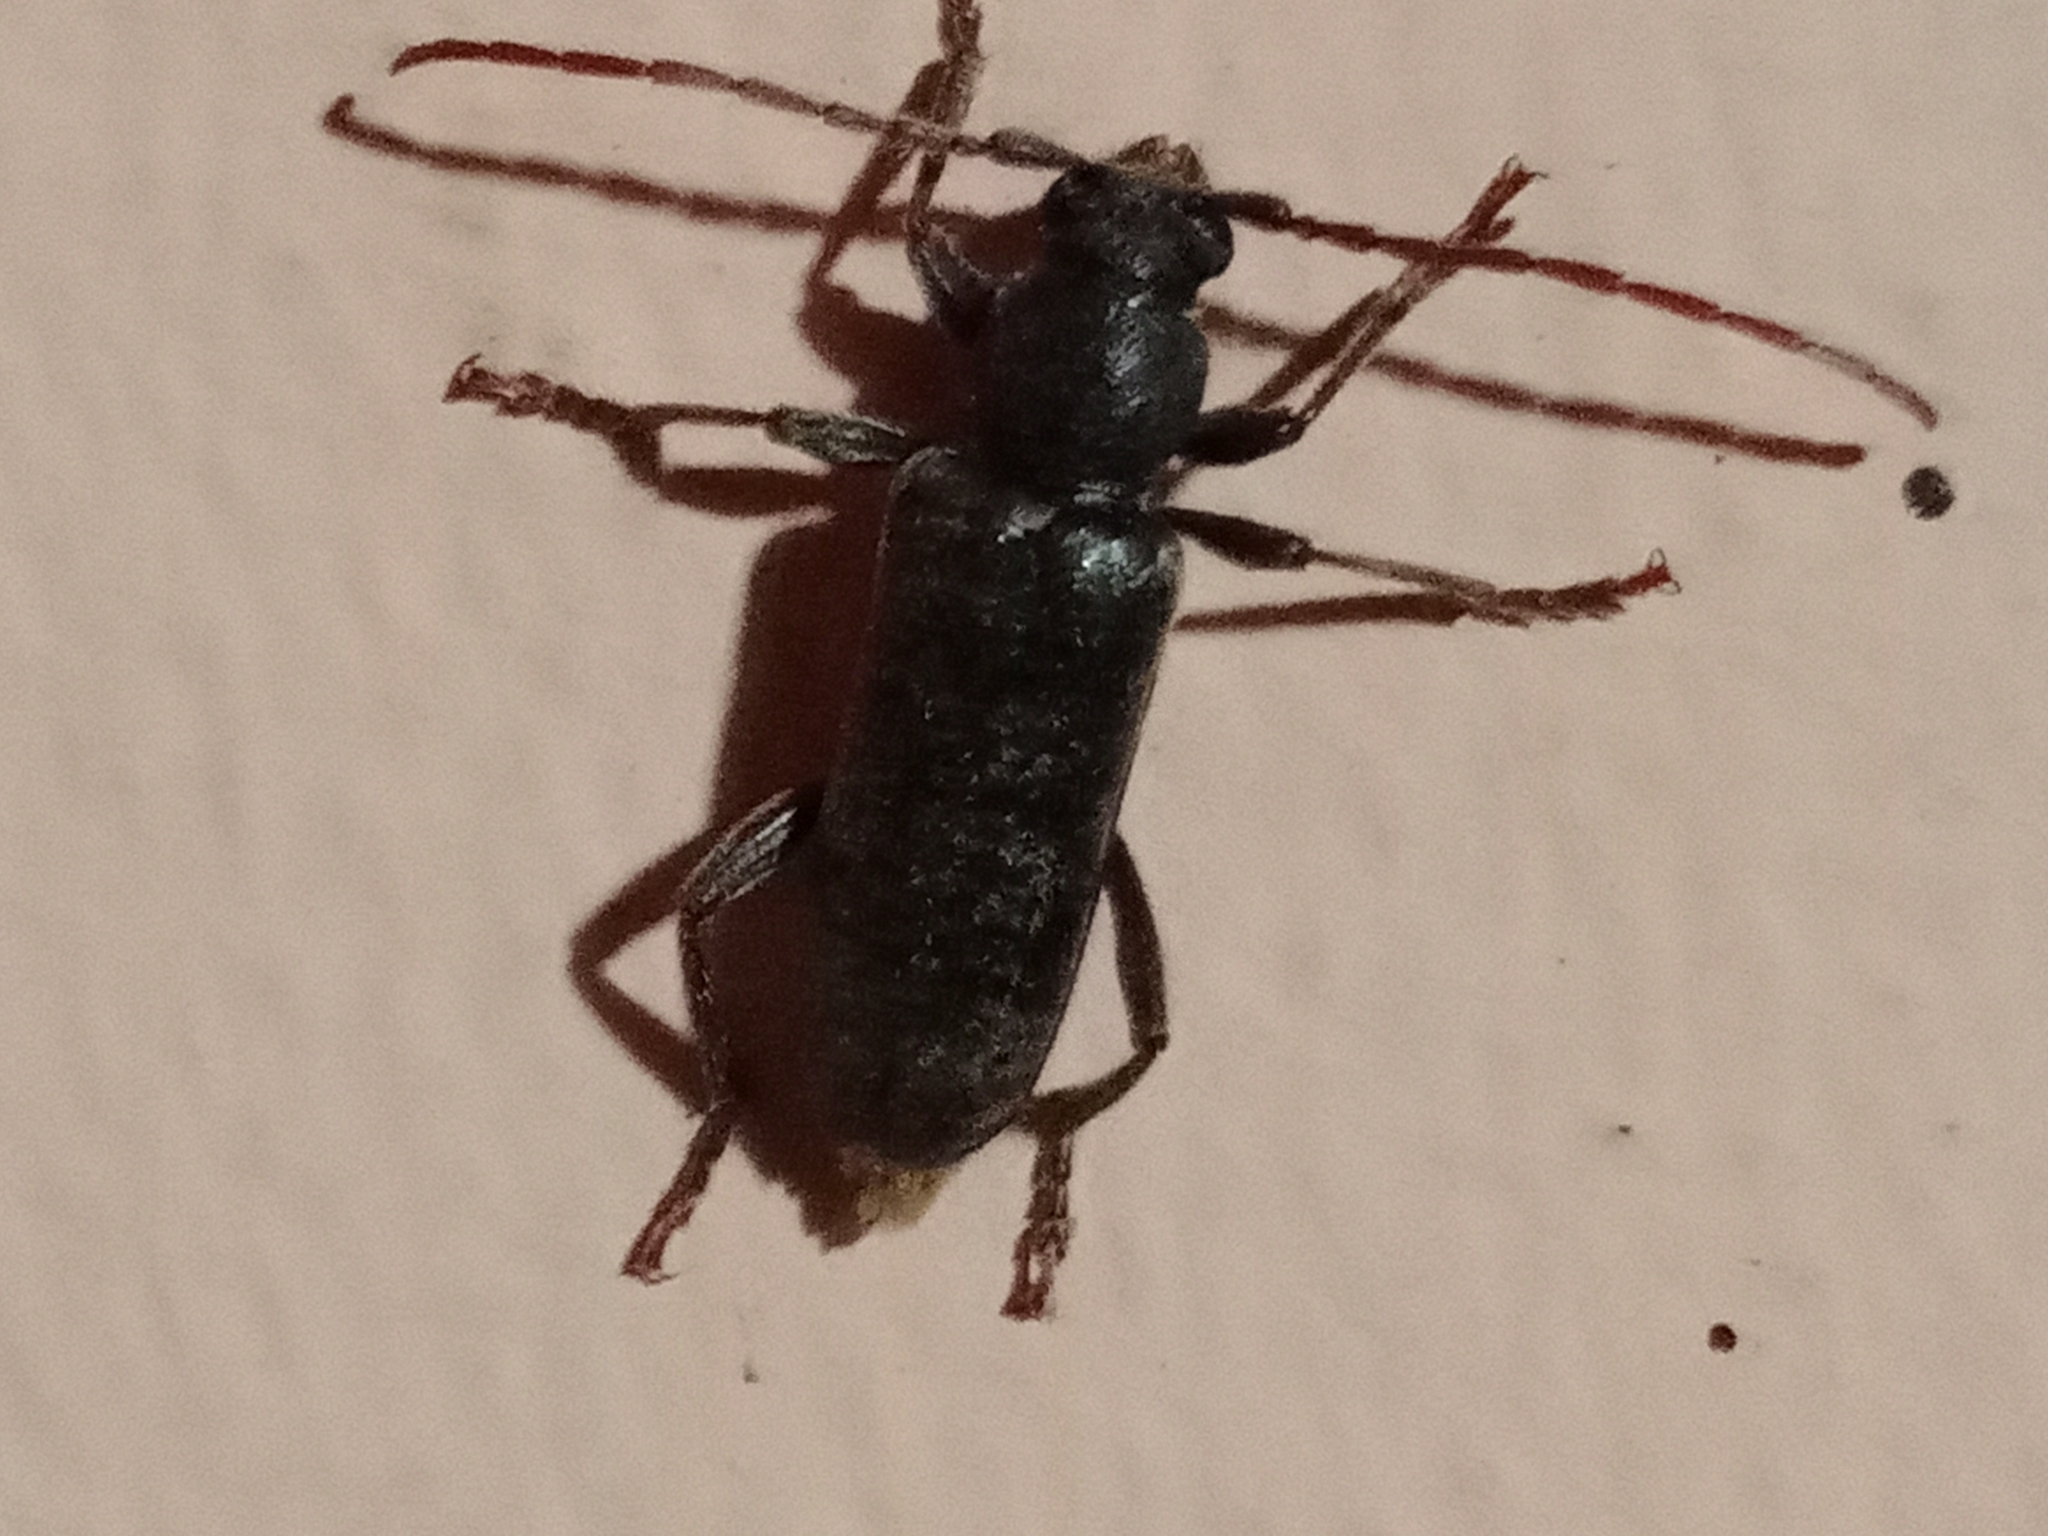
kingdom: Animalia
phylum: Arthropoda
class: Insecta
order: Coleoptera
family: Cerambycidae
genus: Trichoferus
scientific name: Trichoferus campestris
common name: Velvet long horned beetle
